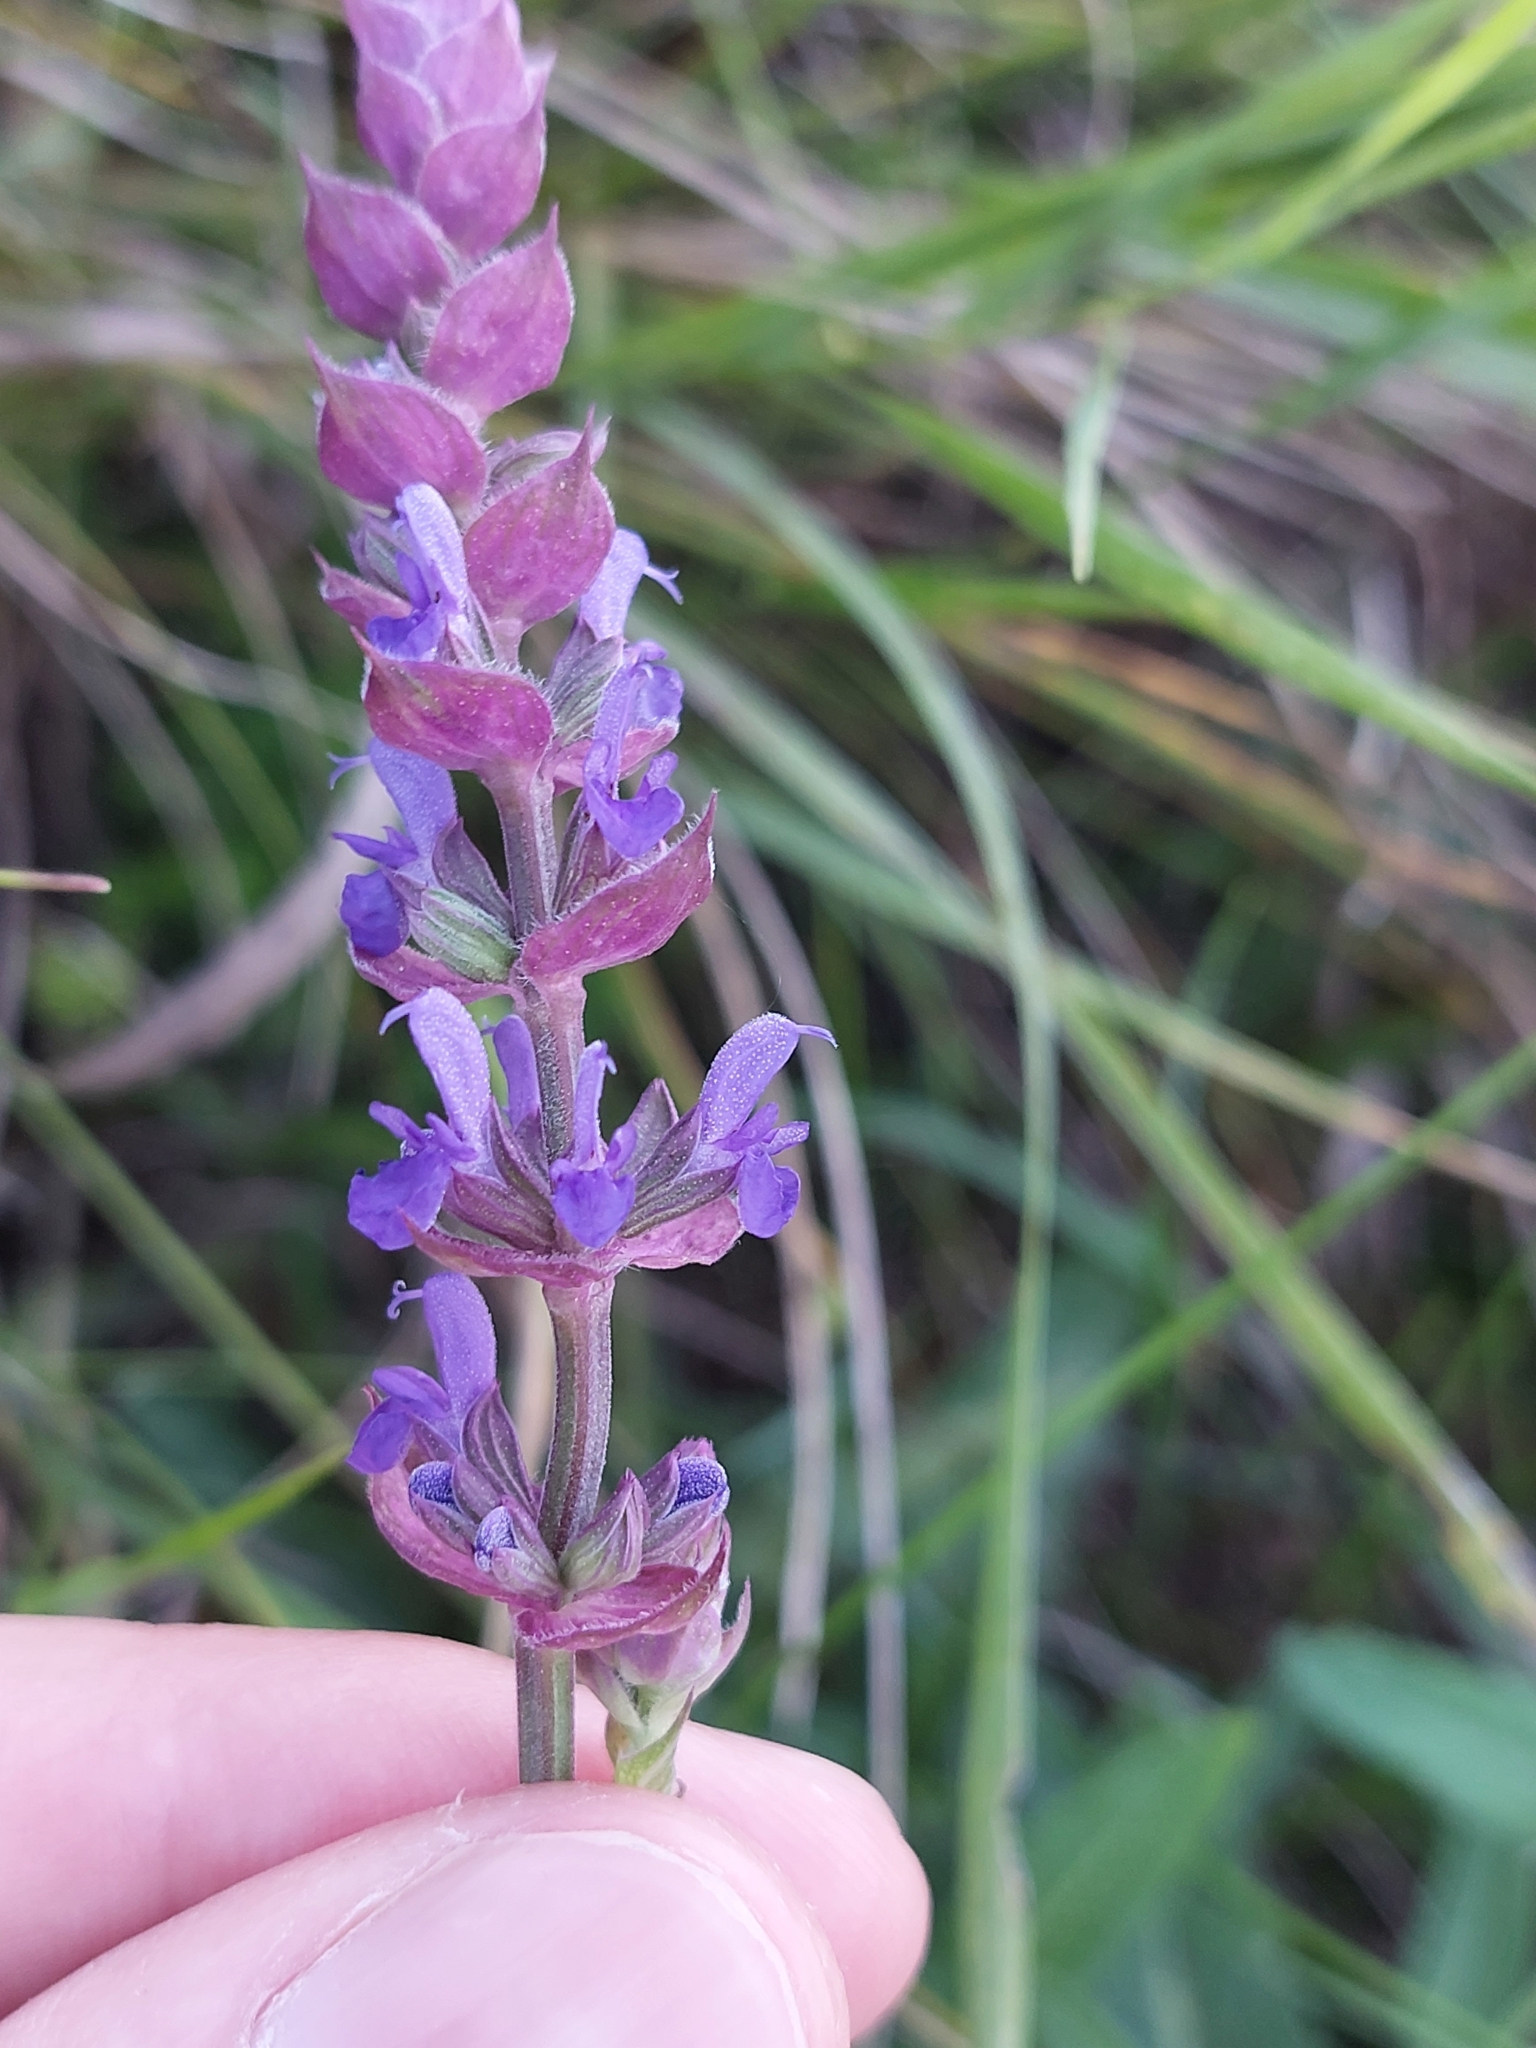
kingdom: Plantae
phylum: Tracheophyta
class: Magnoliopsida
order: Lamiales
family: Lamiaceae
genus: Salvia
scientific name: Salvia nemorosa
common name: Balkan clary
